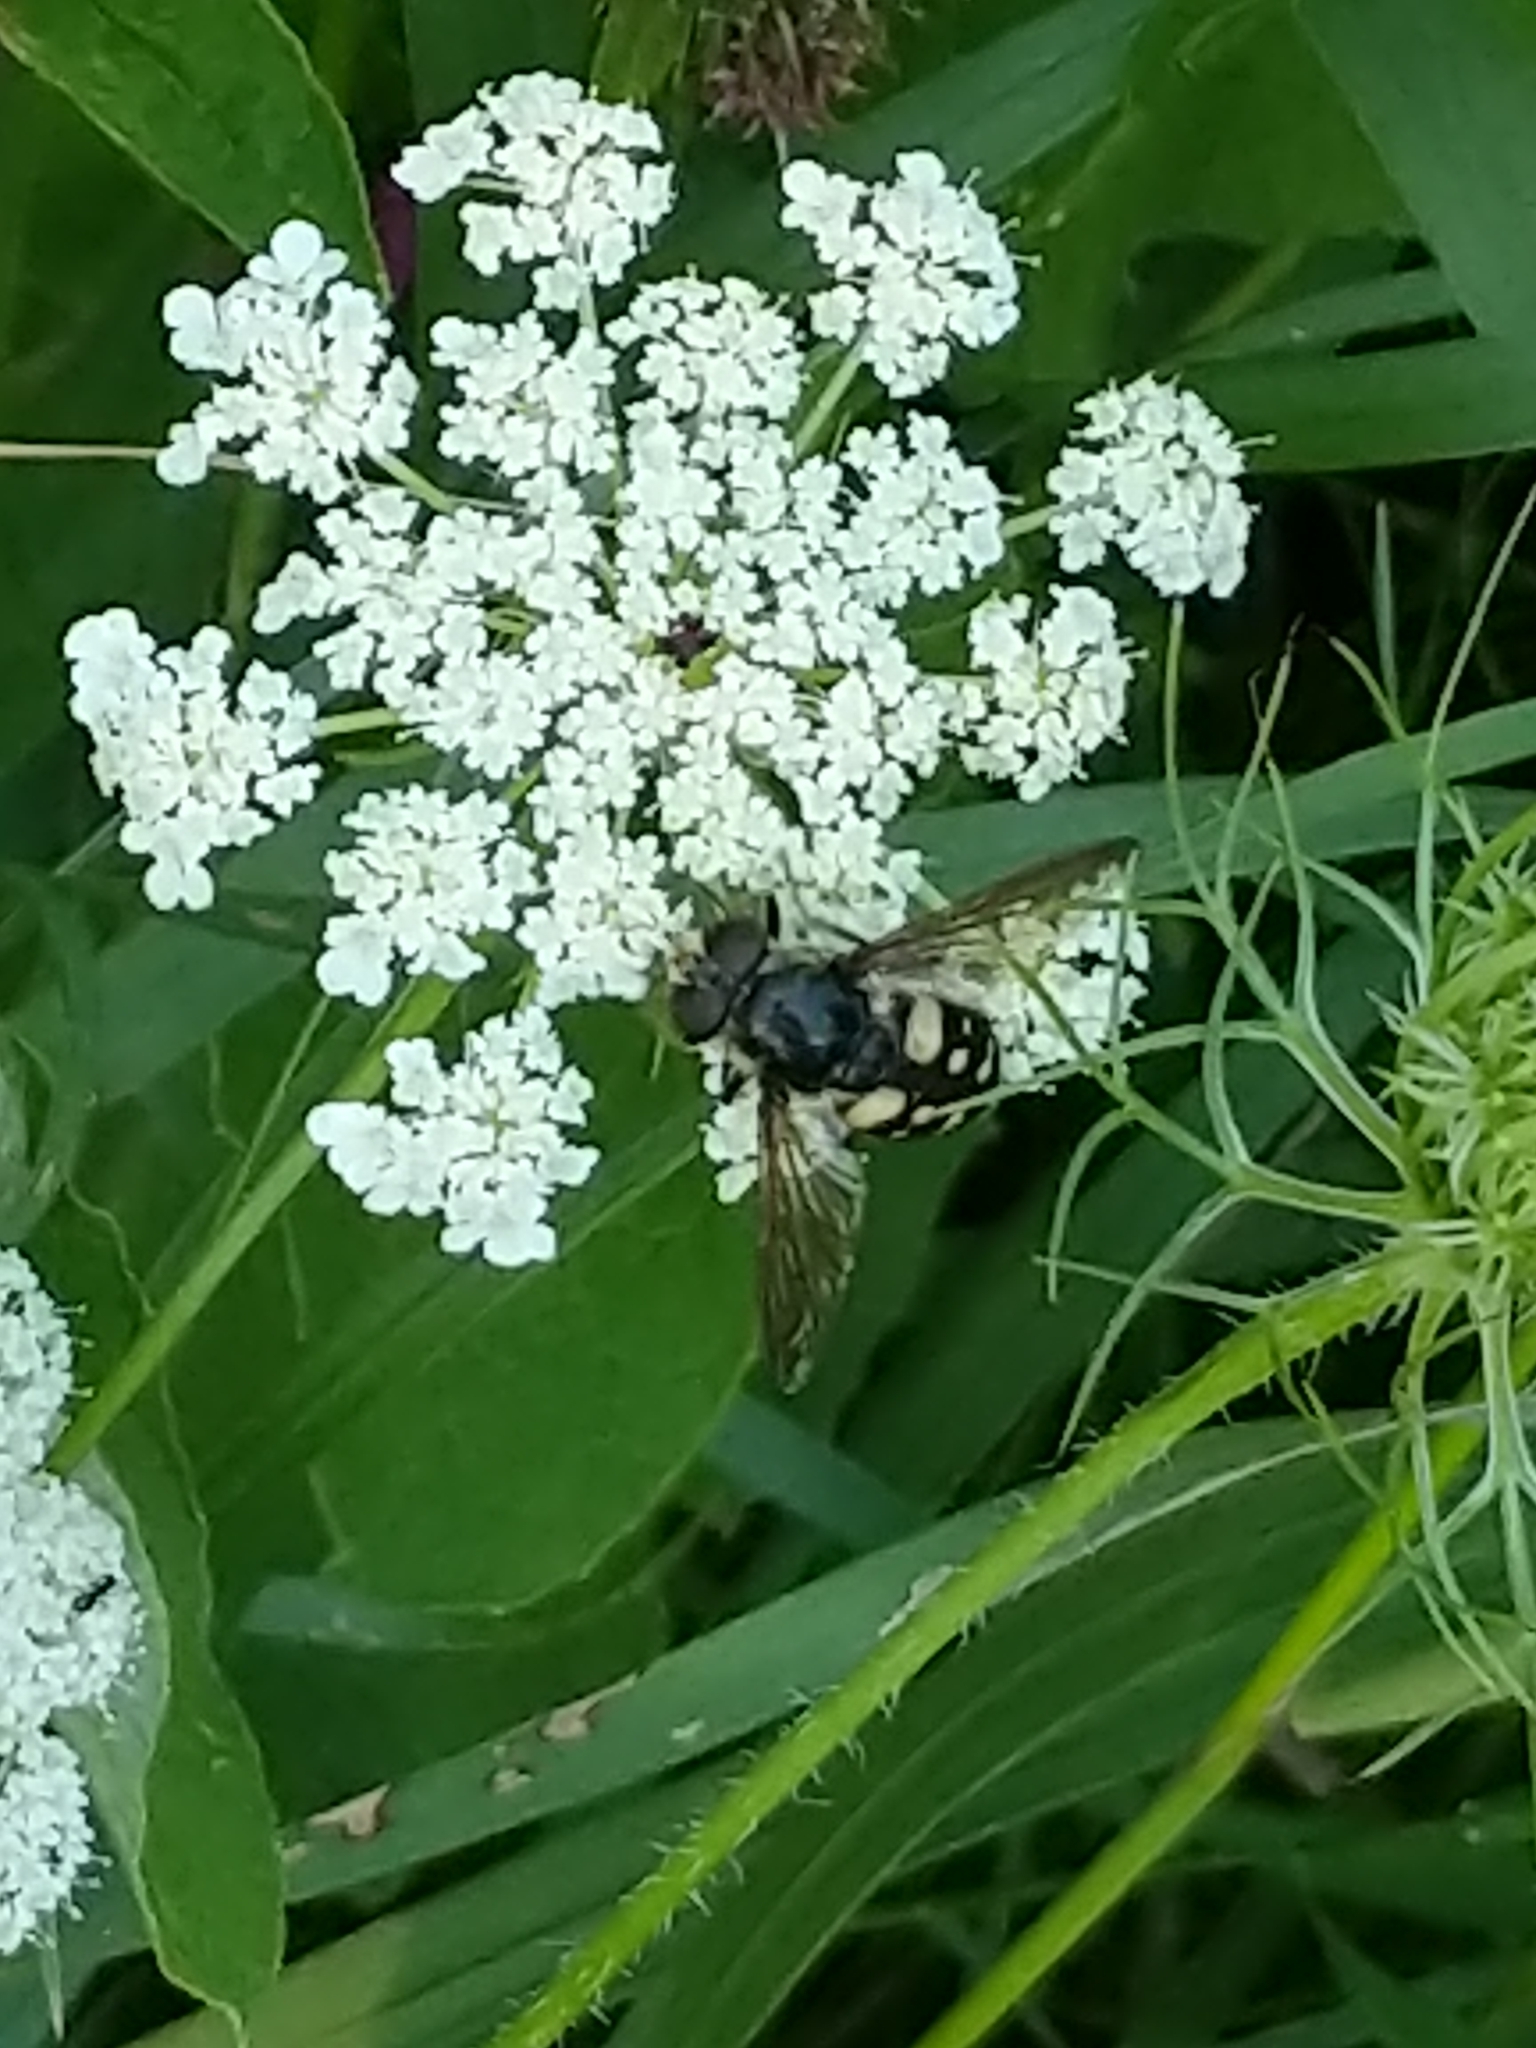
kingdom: Animalia
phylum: Arthropoda
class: Insecta
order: Diptera
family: Syrphidae
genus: Sericomyia
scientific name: Sericomyia lata
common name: White-spotted pond fly
